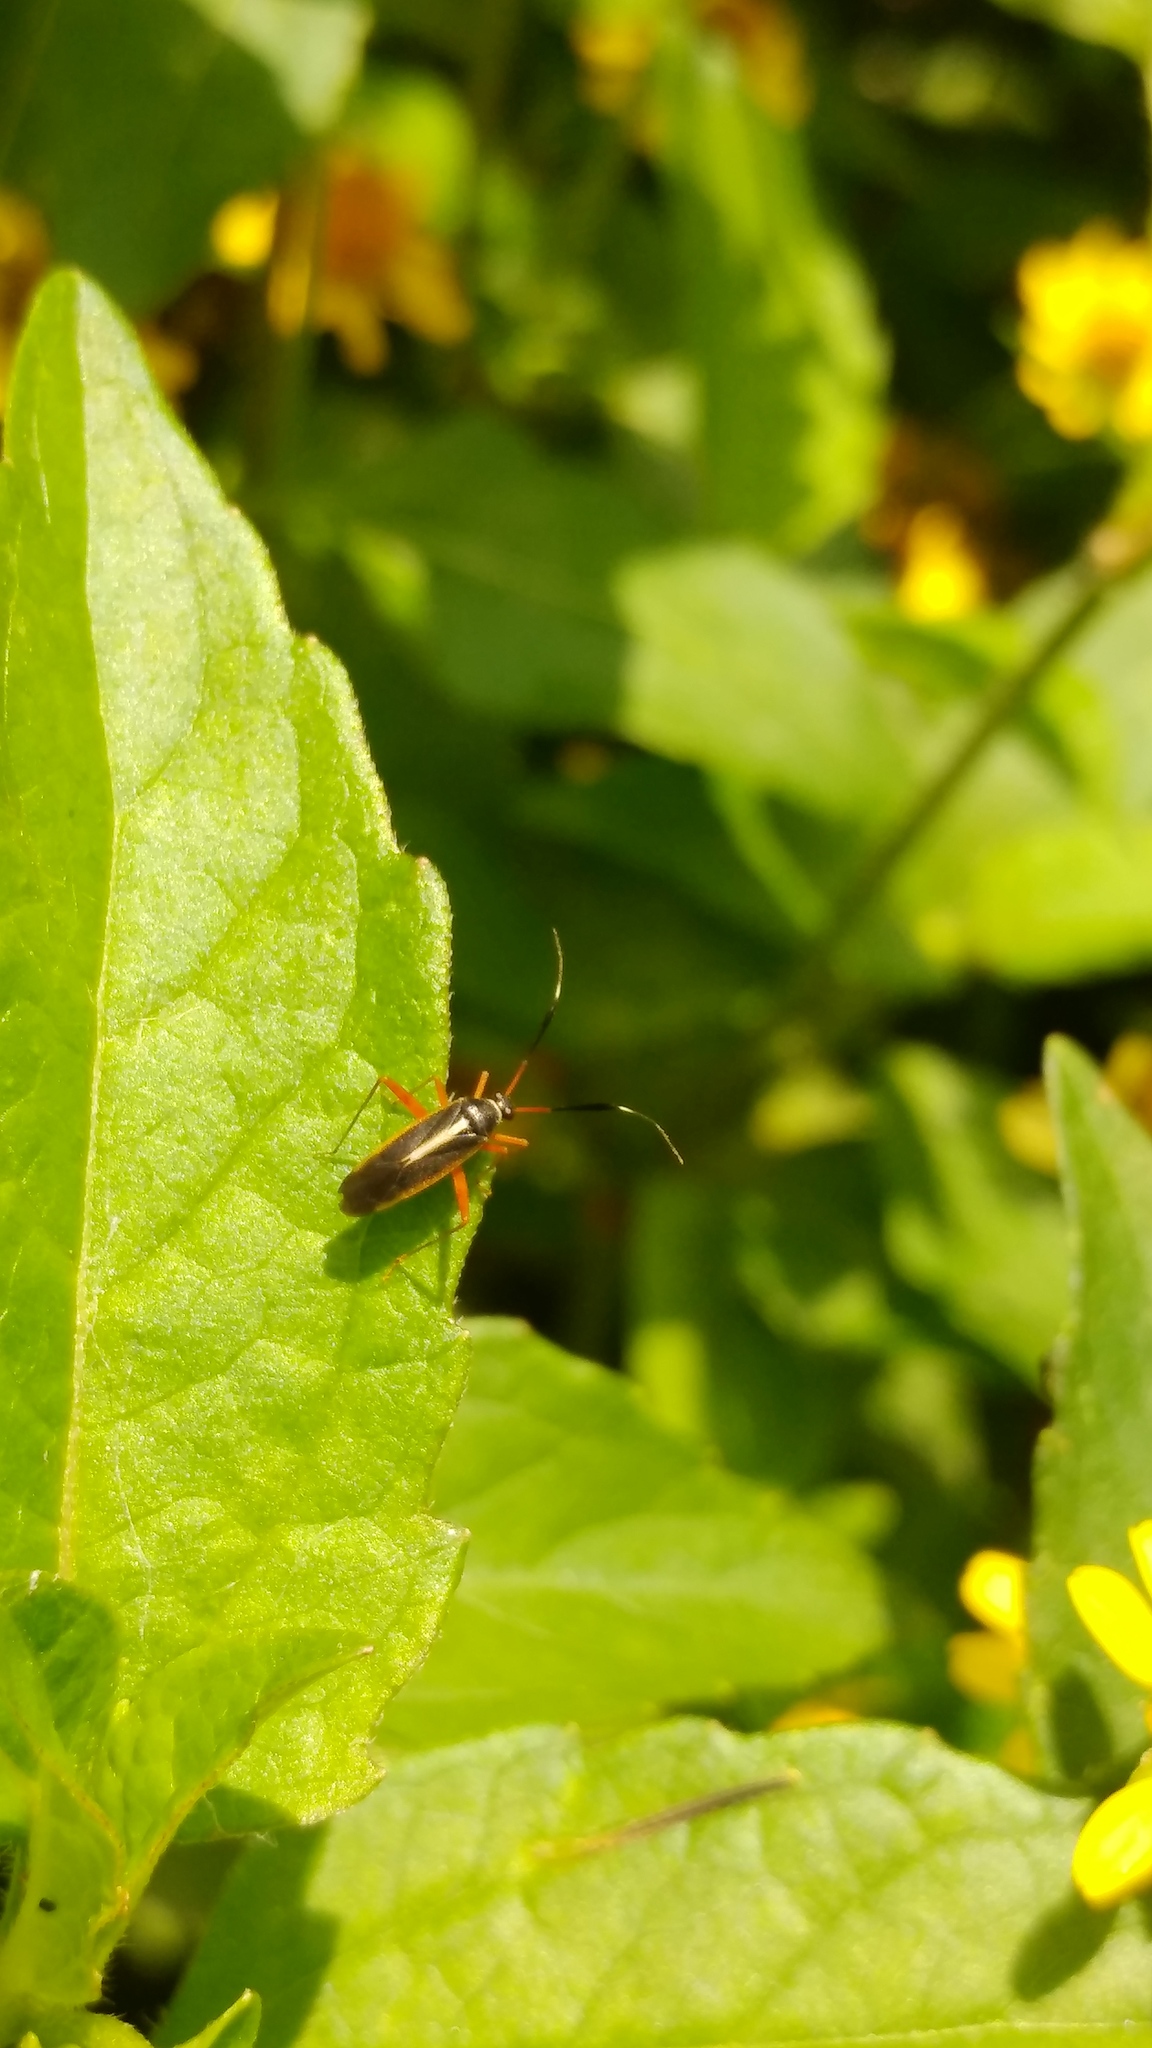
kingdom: Animalia
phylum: Arthropoda
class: Insecta
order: Hemiptera
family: Miridae
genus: Garganus
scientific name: Garganus albidivittis
